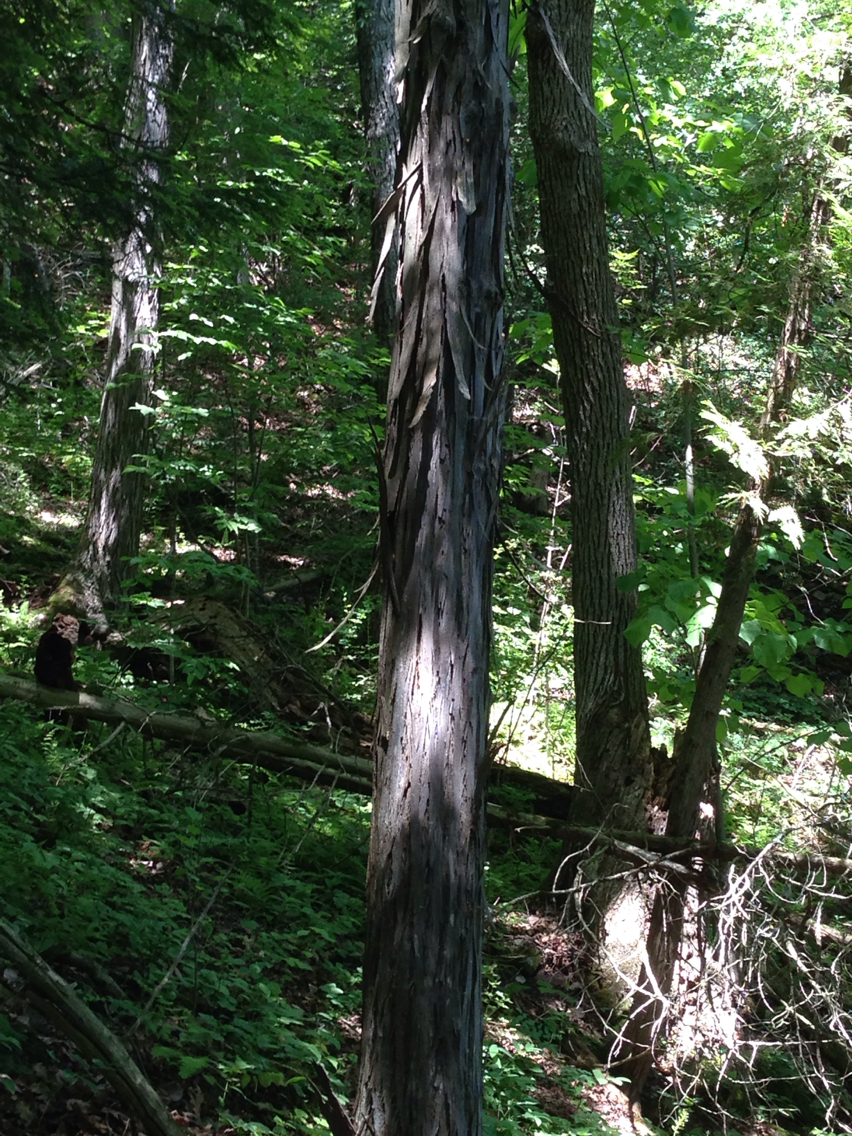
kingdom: Plantae
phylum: Tracheophyta
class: Magnoliopsida
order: Fagales
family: Juglandaceae
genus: Carya
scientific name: Carya ovata
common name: Shagbark hickory
